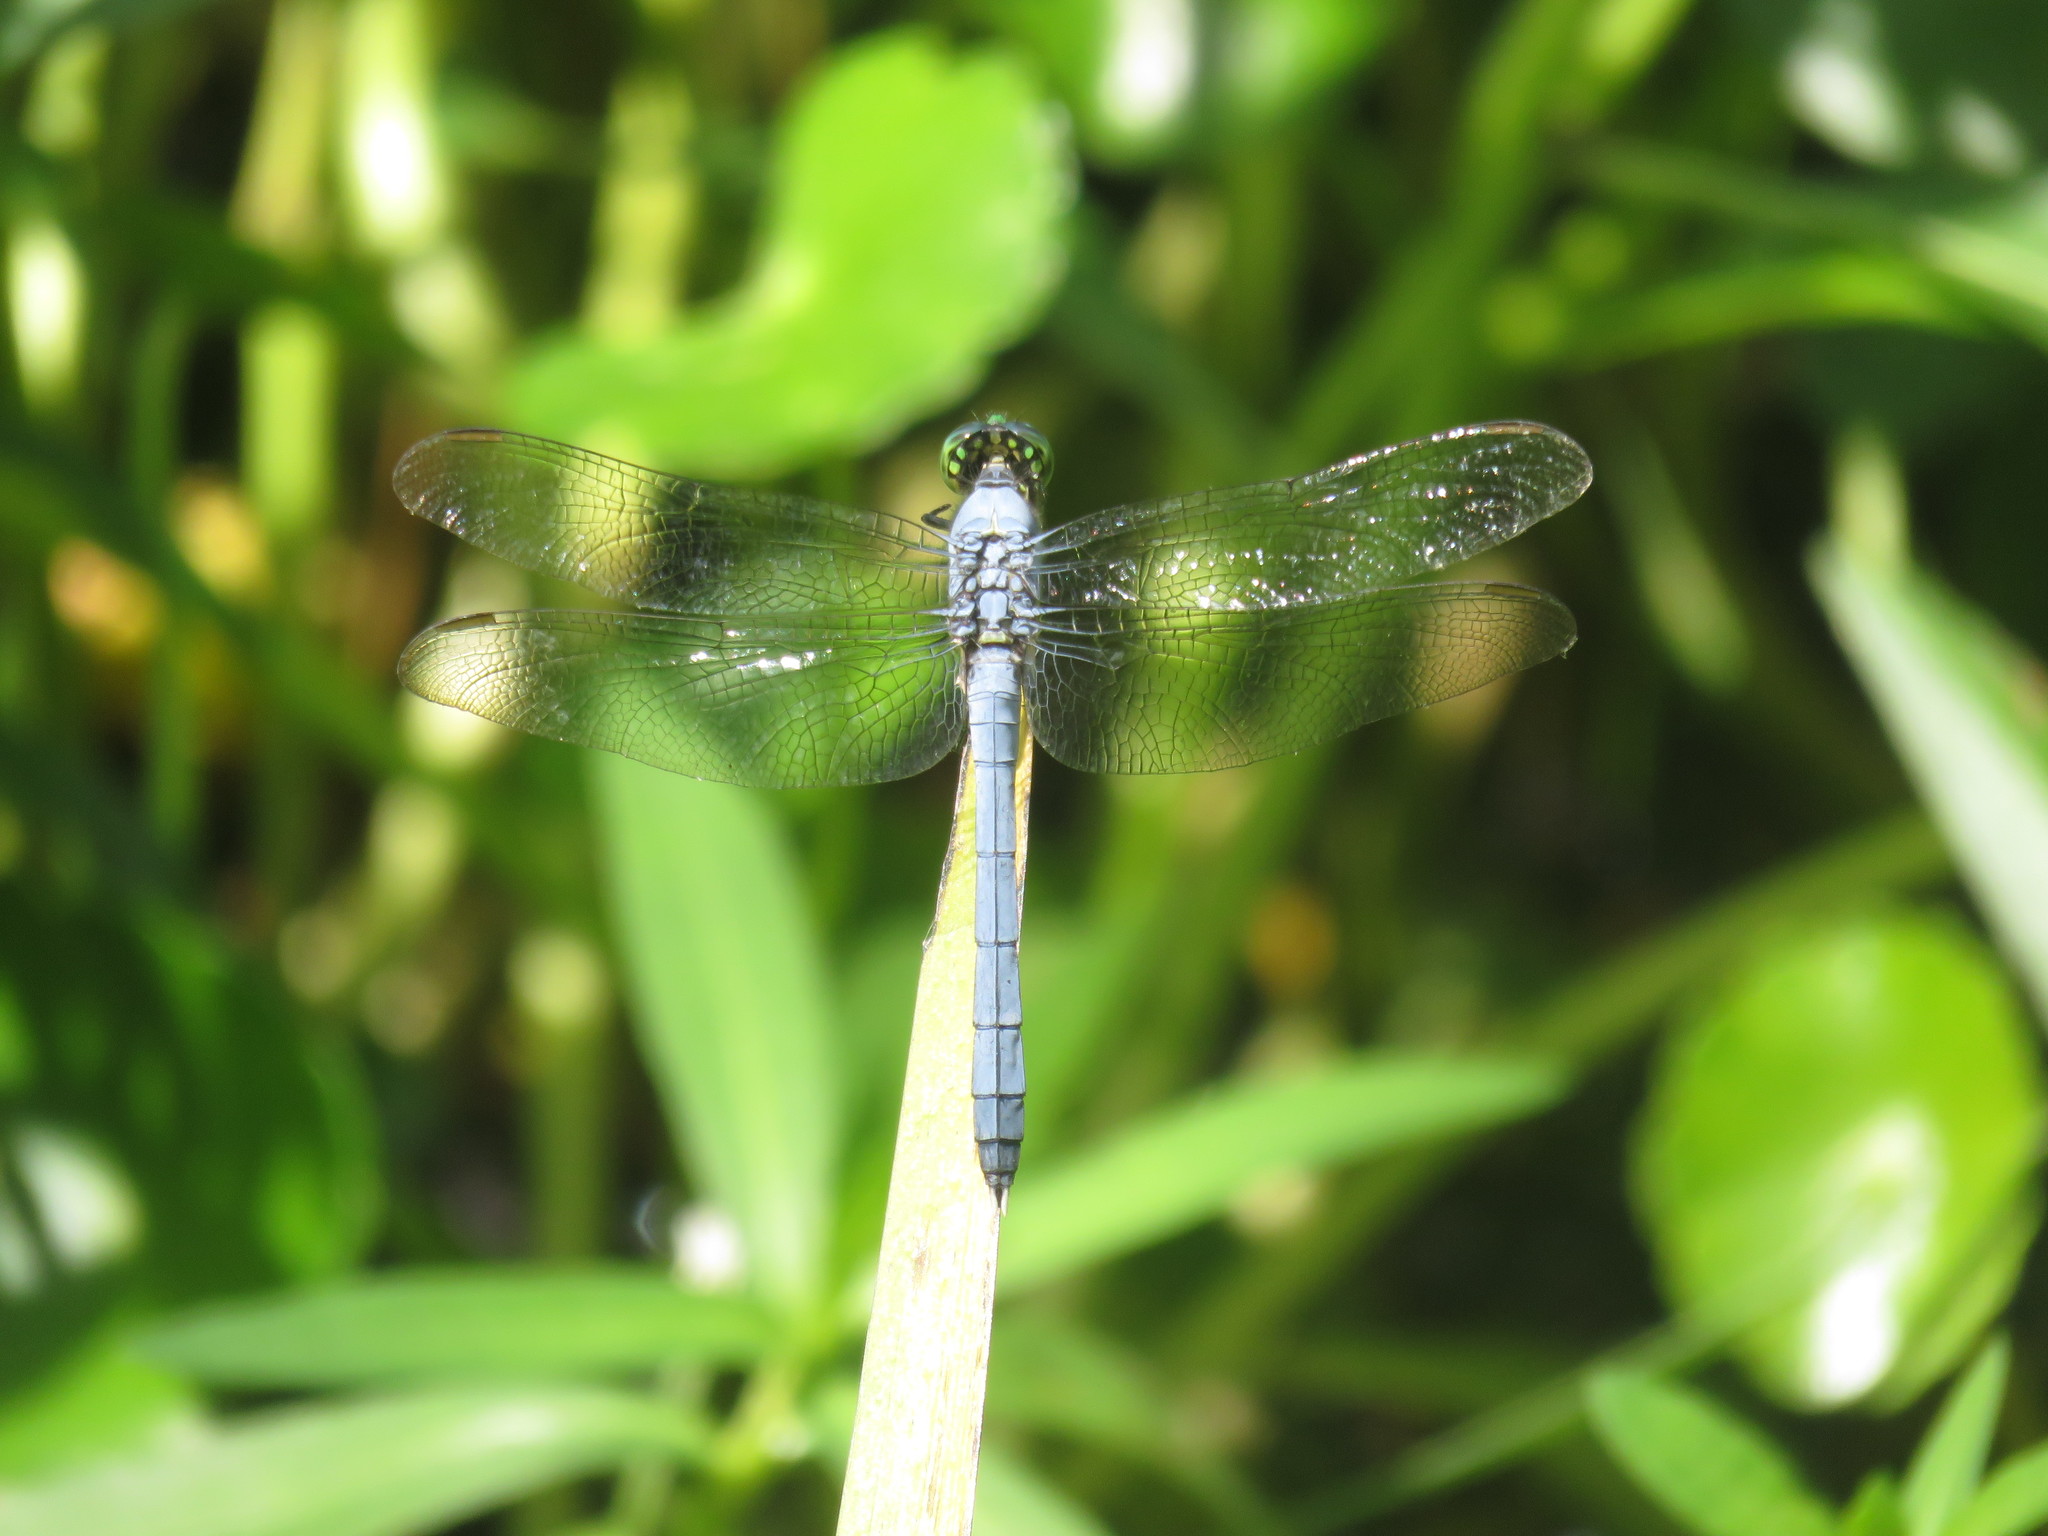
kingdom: Animalia
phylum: Arthropoda
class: Insecta
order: Odonata
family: Libellulidae
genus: Erythemis
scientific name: Erythemis simplicicollis
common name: Eastern pondhawk
